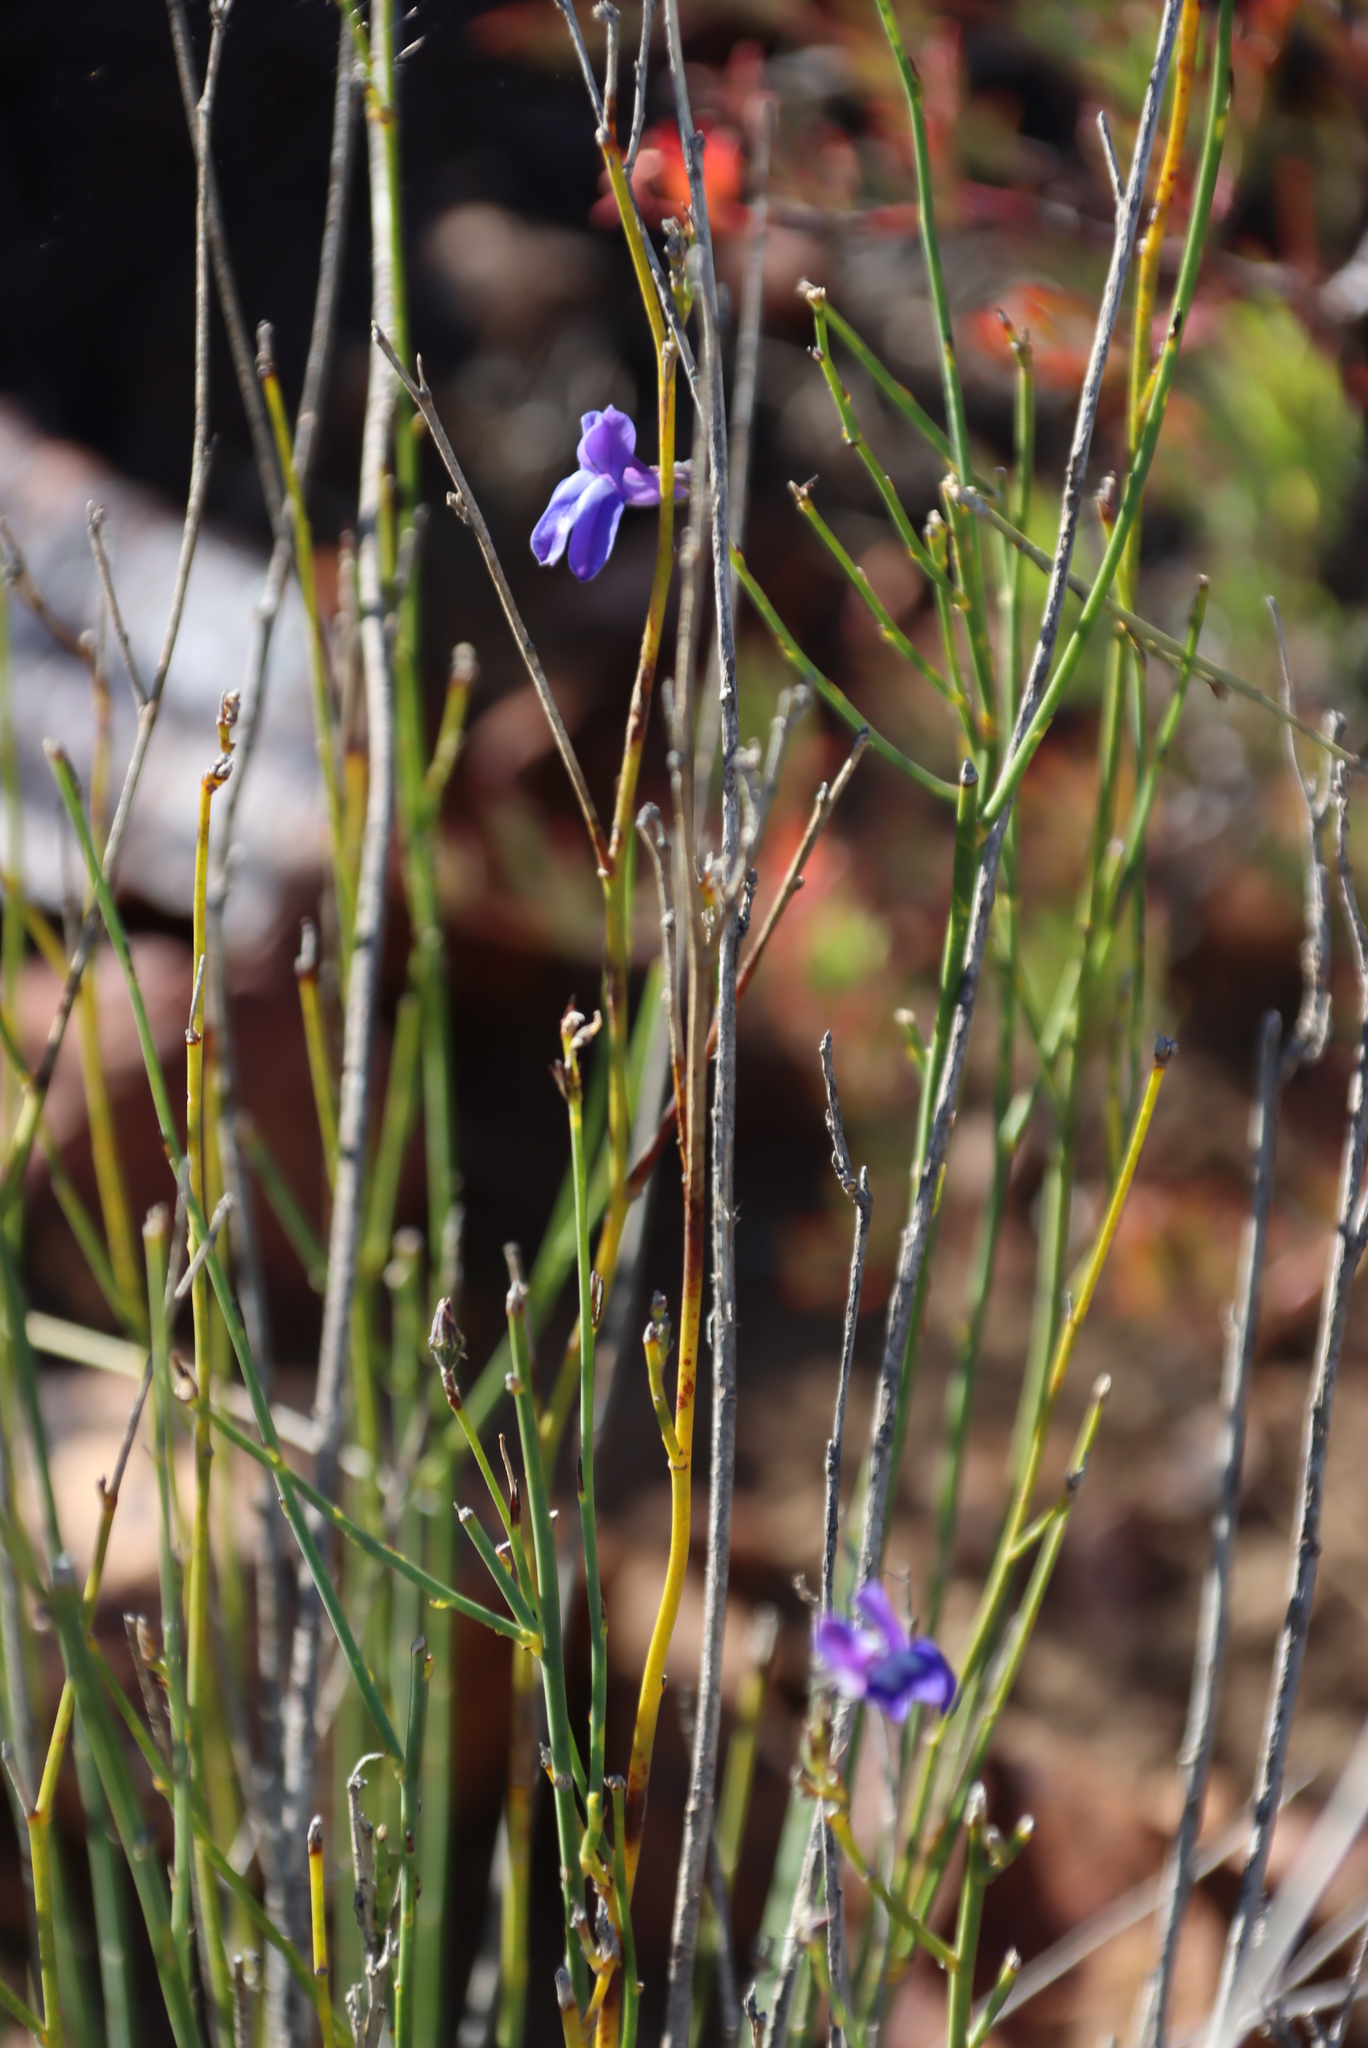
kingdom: Plantae
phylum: Tracheophyta
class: Magnoliopsida
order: Asterales
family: Campanulaceae
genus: Lobelia
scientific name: Lobelia linearis
